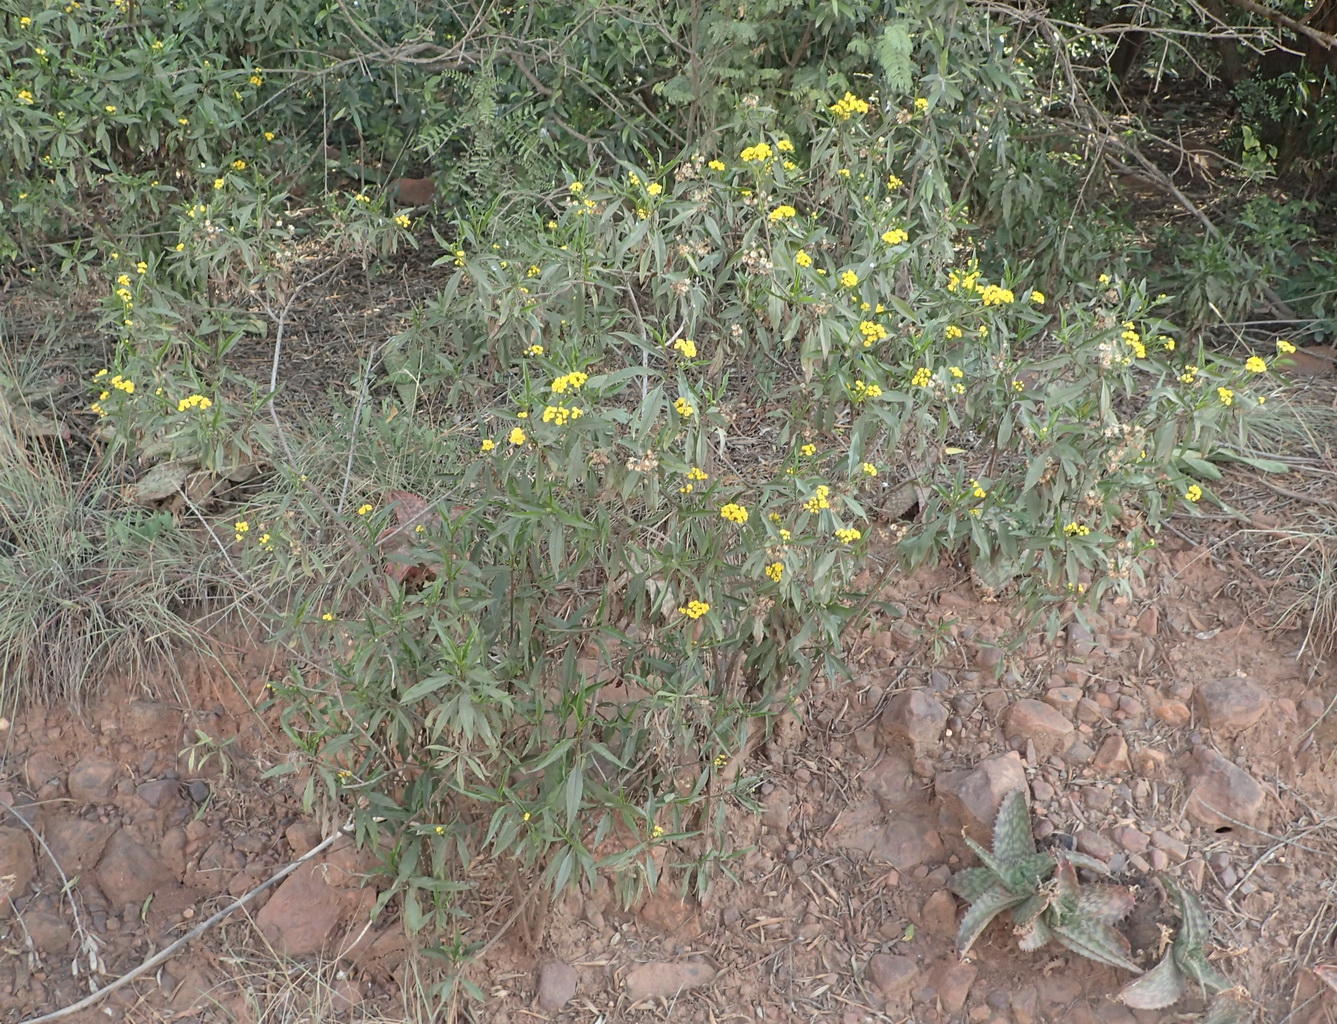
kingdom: Plantae
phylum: Tracheophyta
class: Magnoliopsida
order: Asterales
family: Asteraceae
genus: Psiadia
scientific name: Psiadia punctulata
